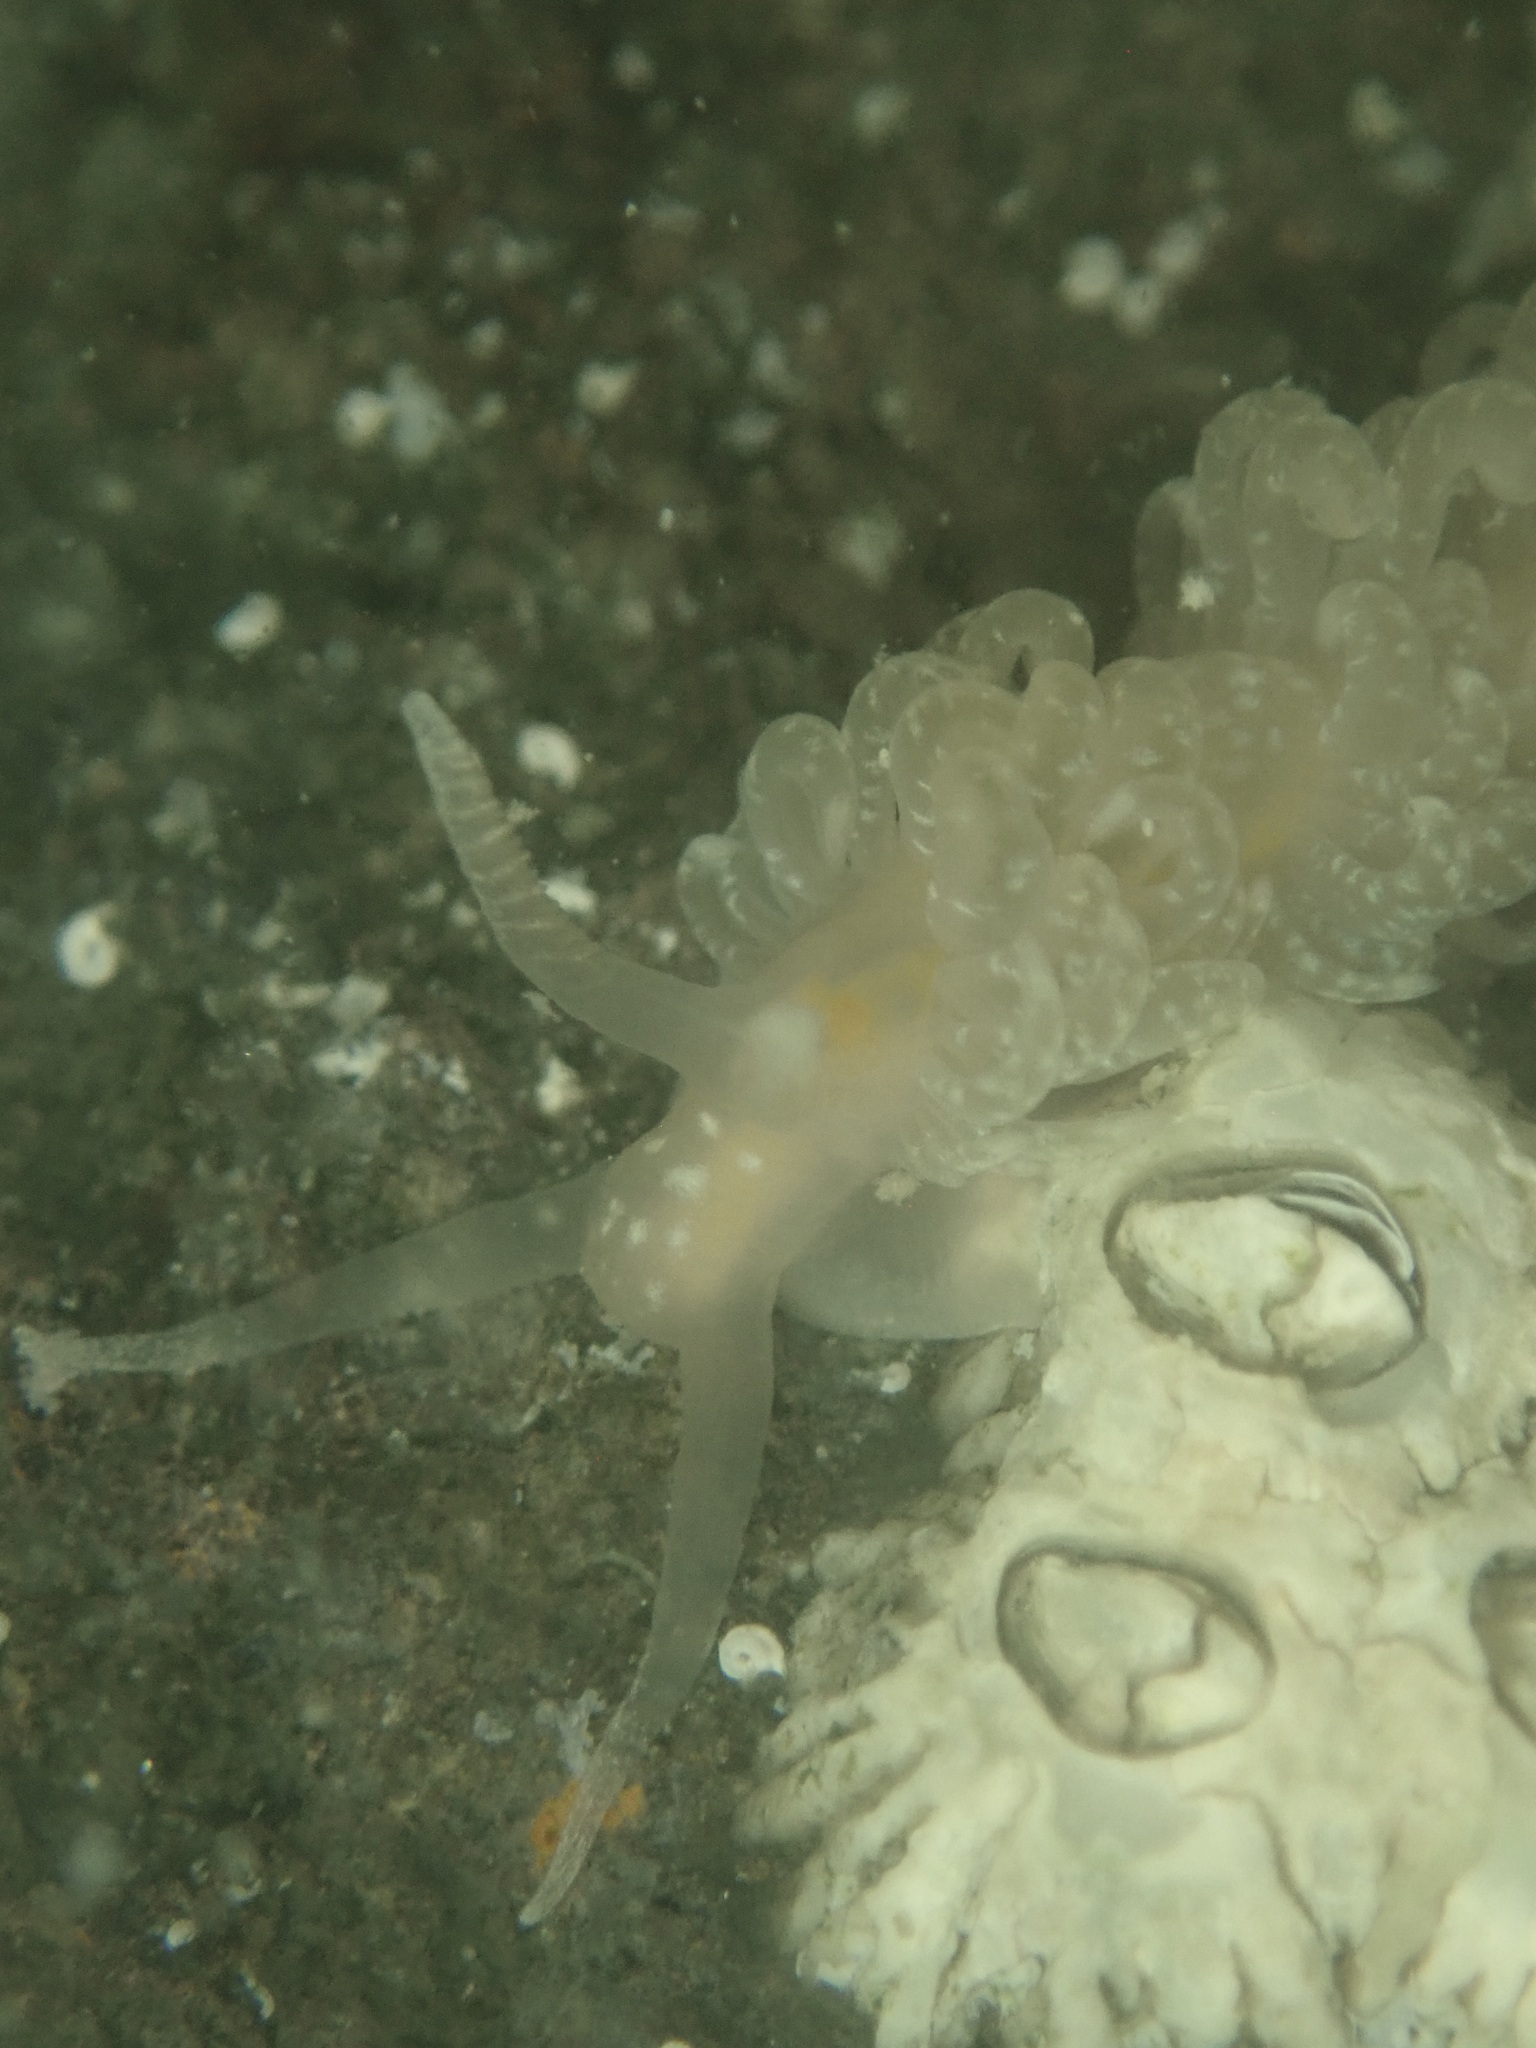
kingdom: Animalia
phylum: Mollusca
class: Gastropoda
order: Nudibranchia
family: Aeolidiidae
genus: Spurilla
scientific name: Spurilla braziliana
